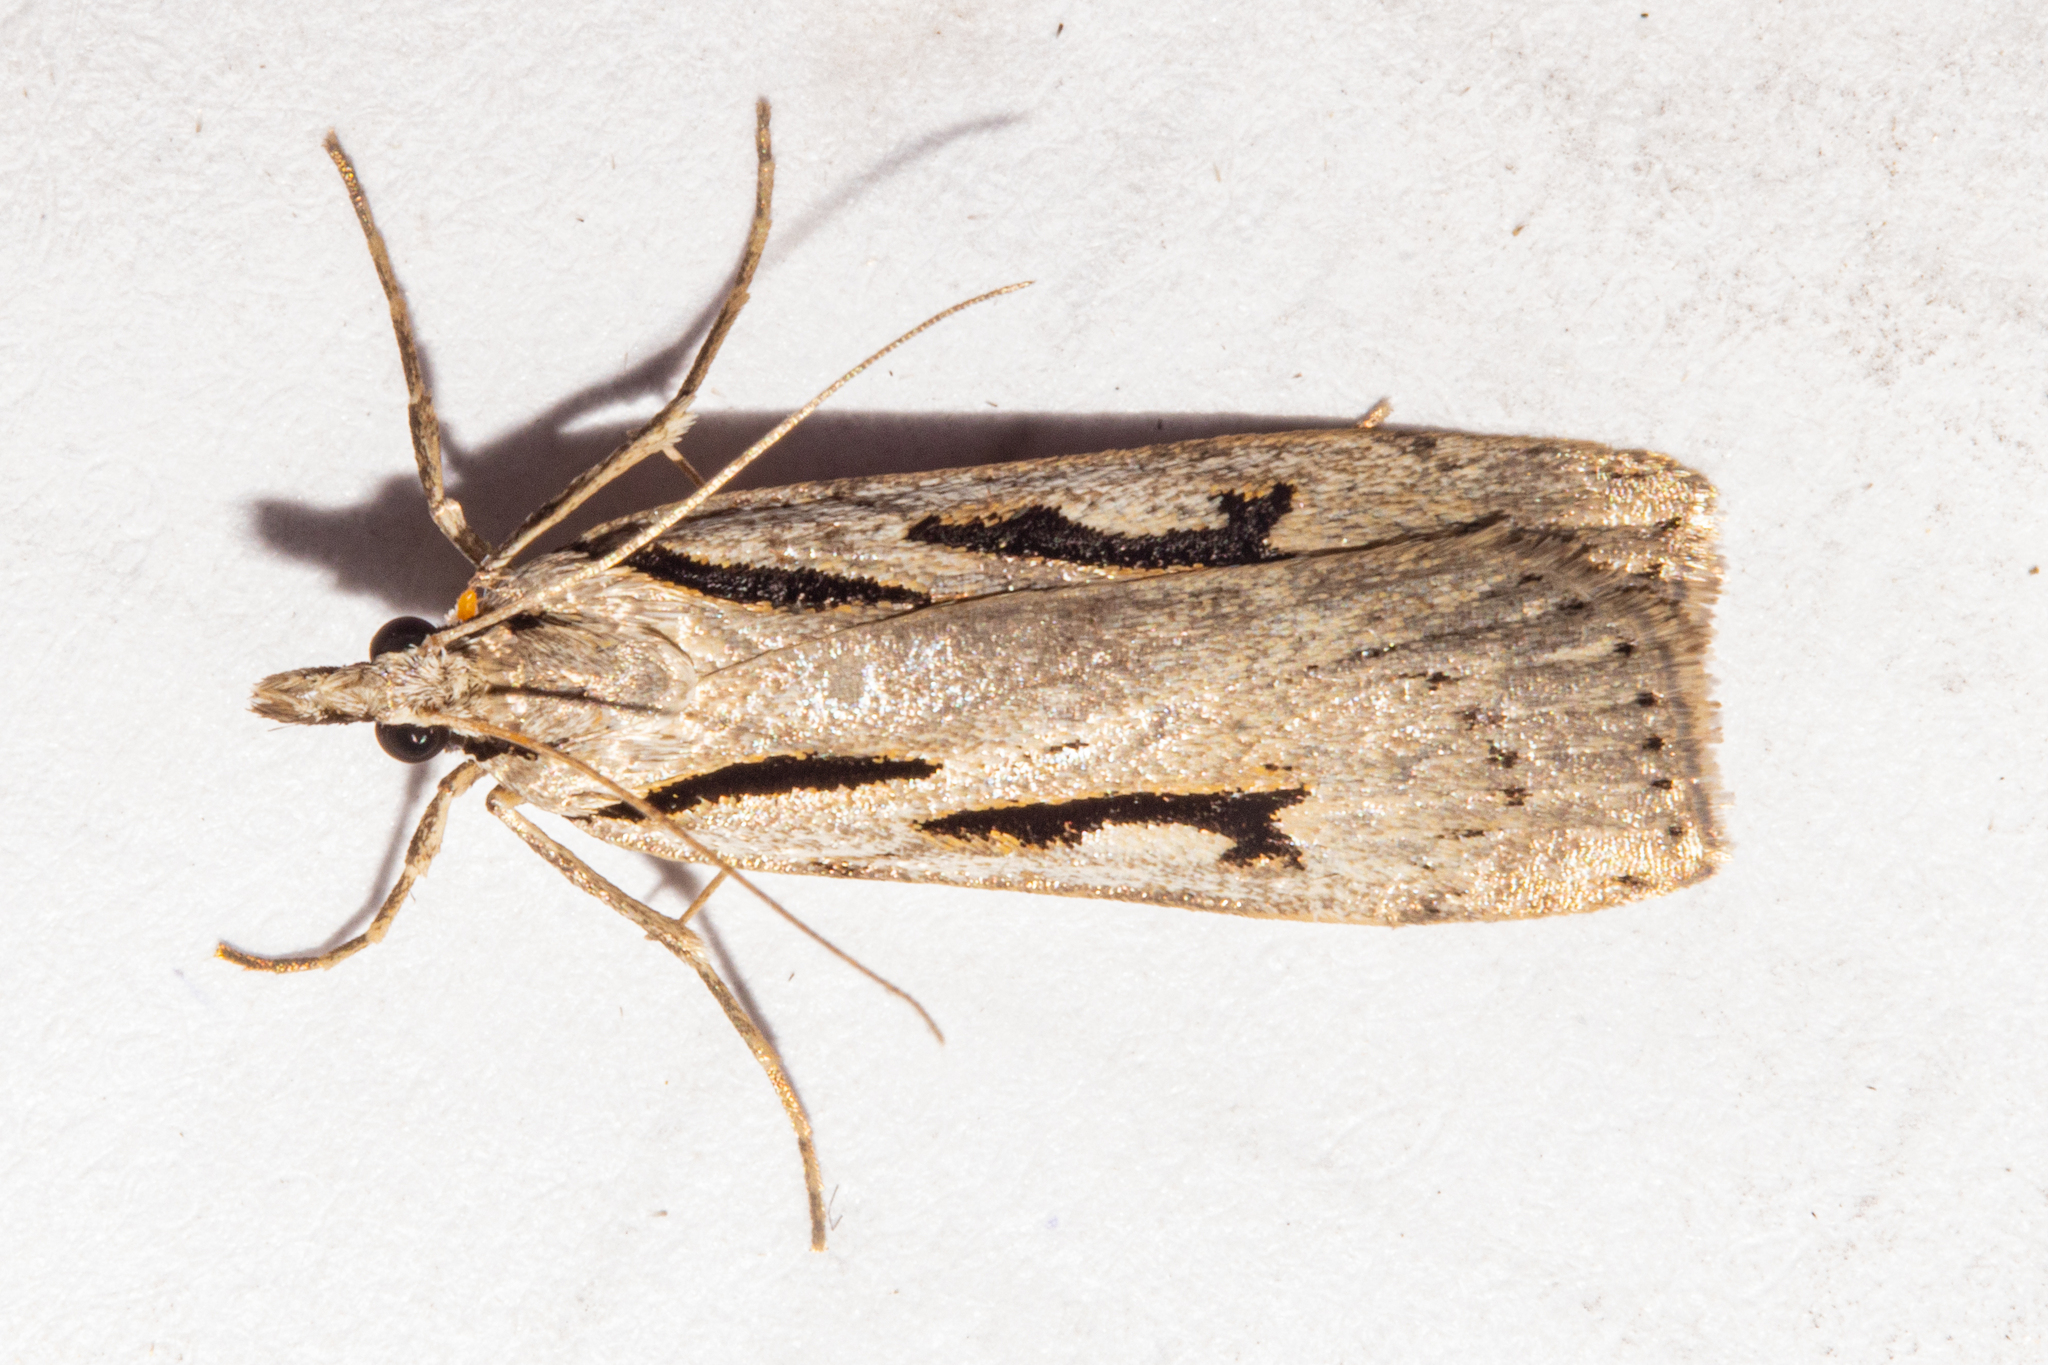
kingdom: Animalia
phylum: Arthropoda
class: Insecta
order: Lepidoptera
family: Crambidae
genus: Scoparia
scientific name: Scoparia rotuellus
